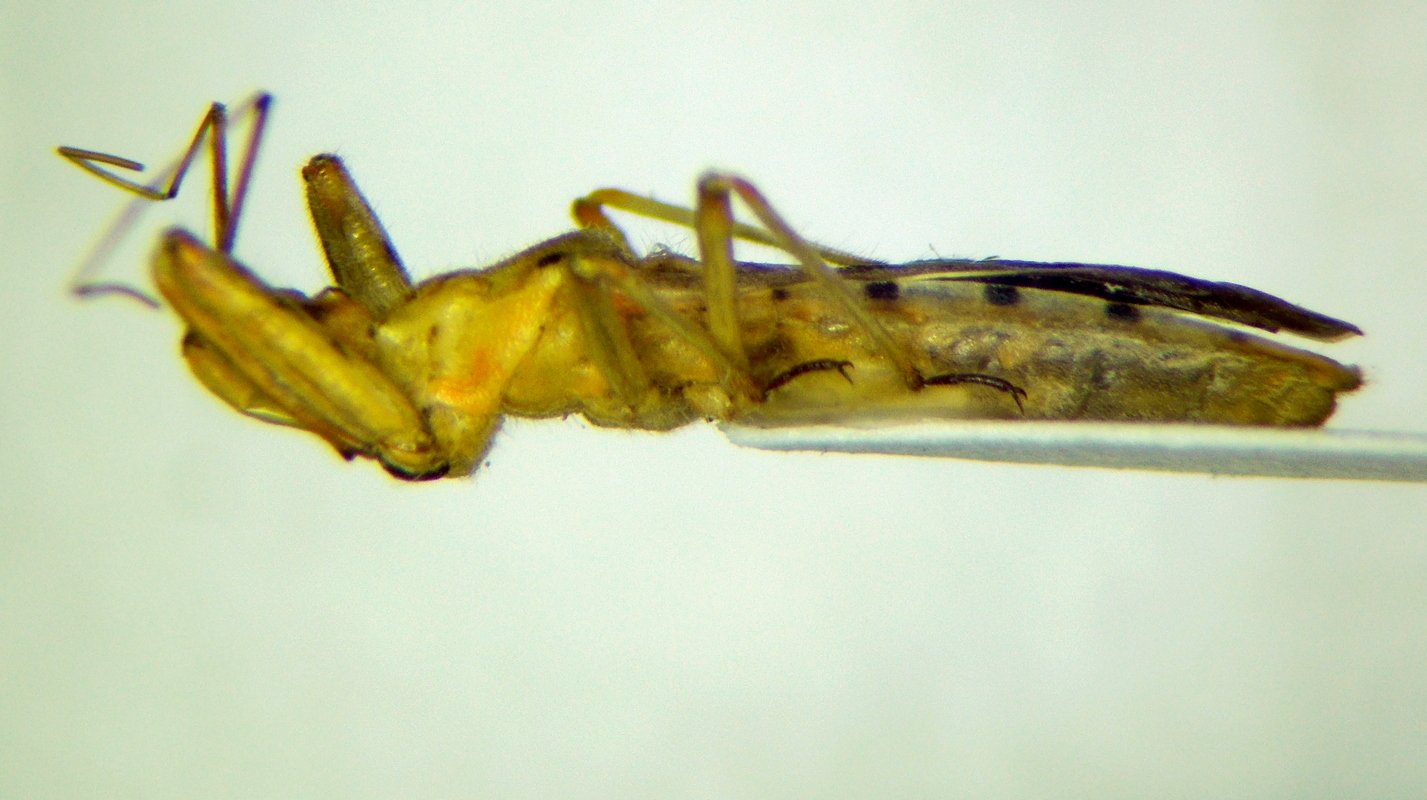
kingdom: Animalia
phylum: Arthropoda
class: Insecta
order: Hemiptera
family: Reduviidae
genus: Callistodema
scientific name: Callistodema fasciata
